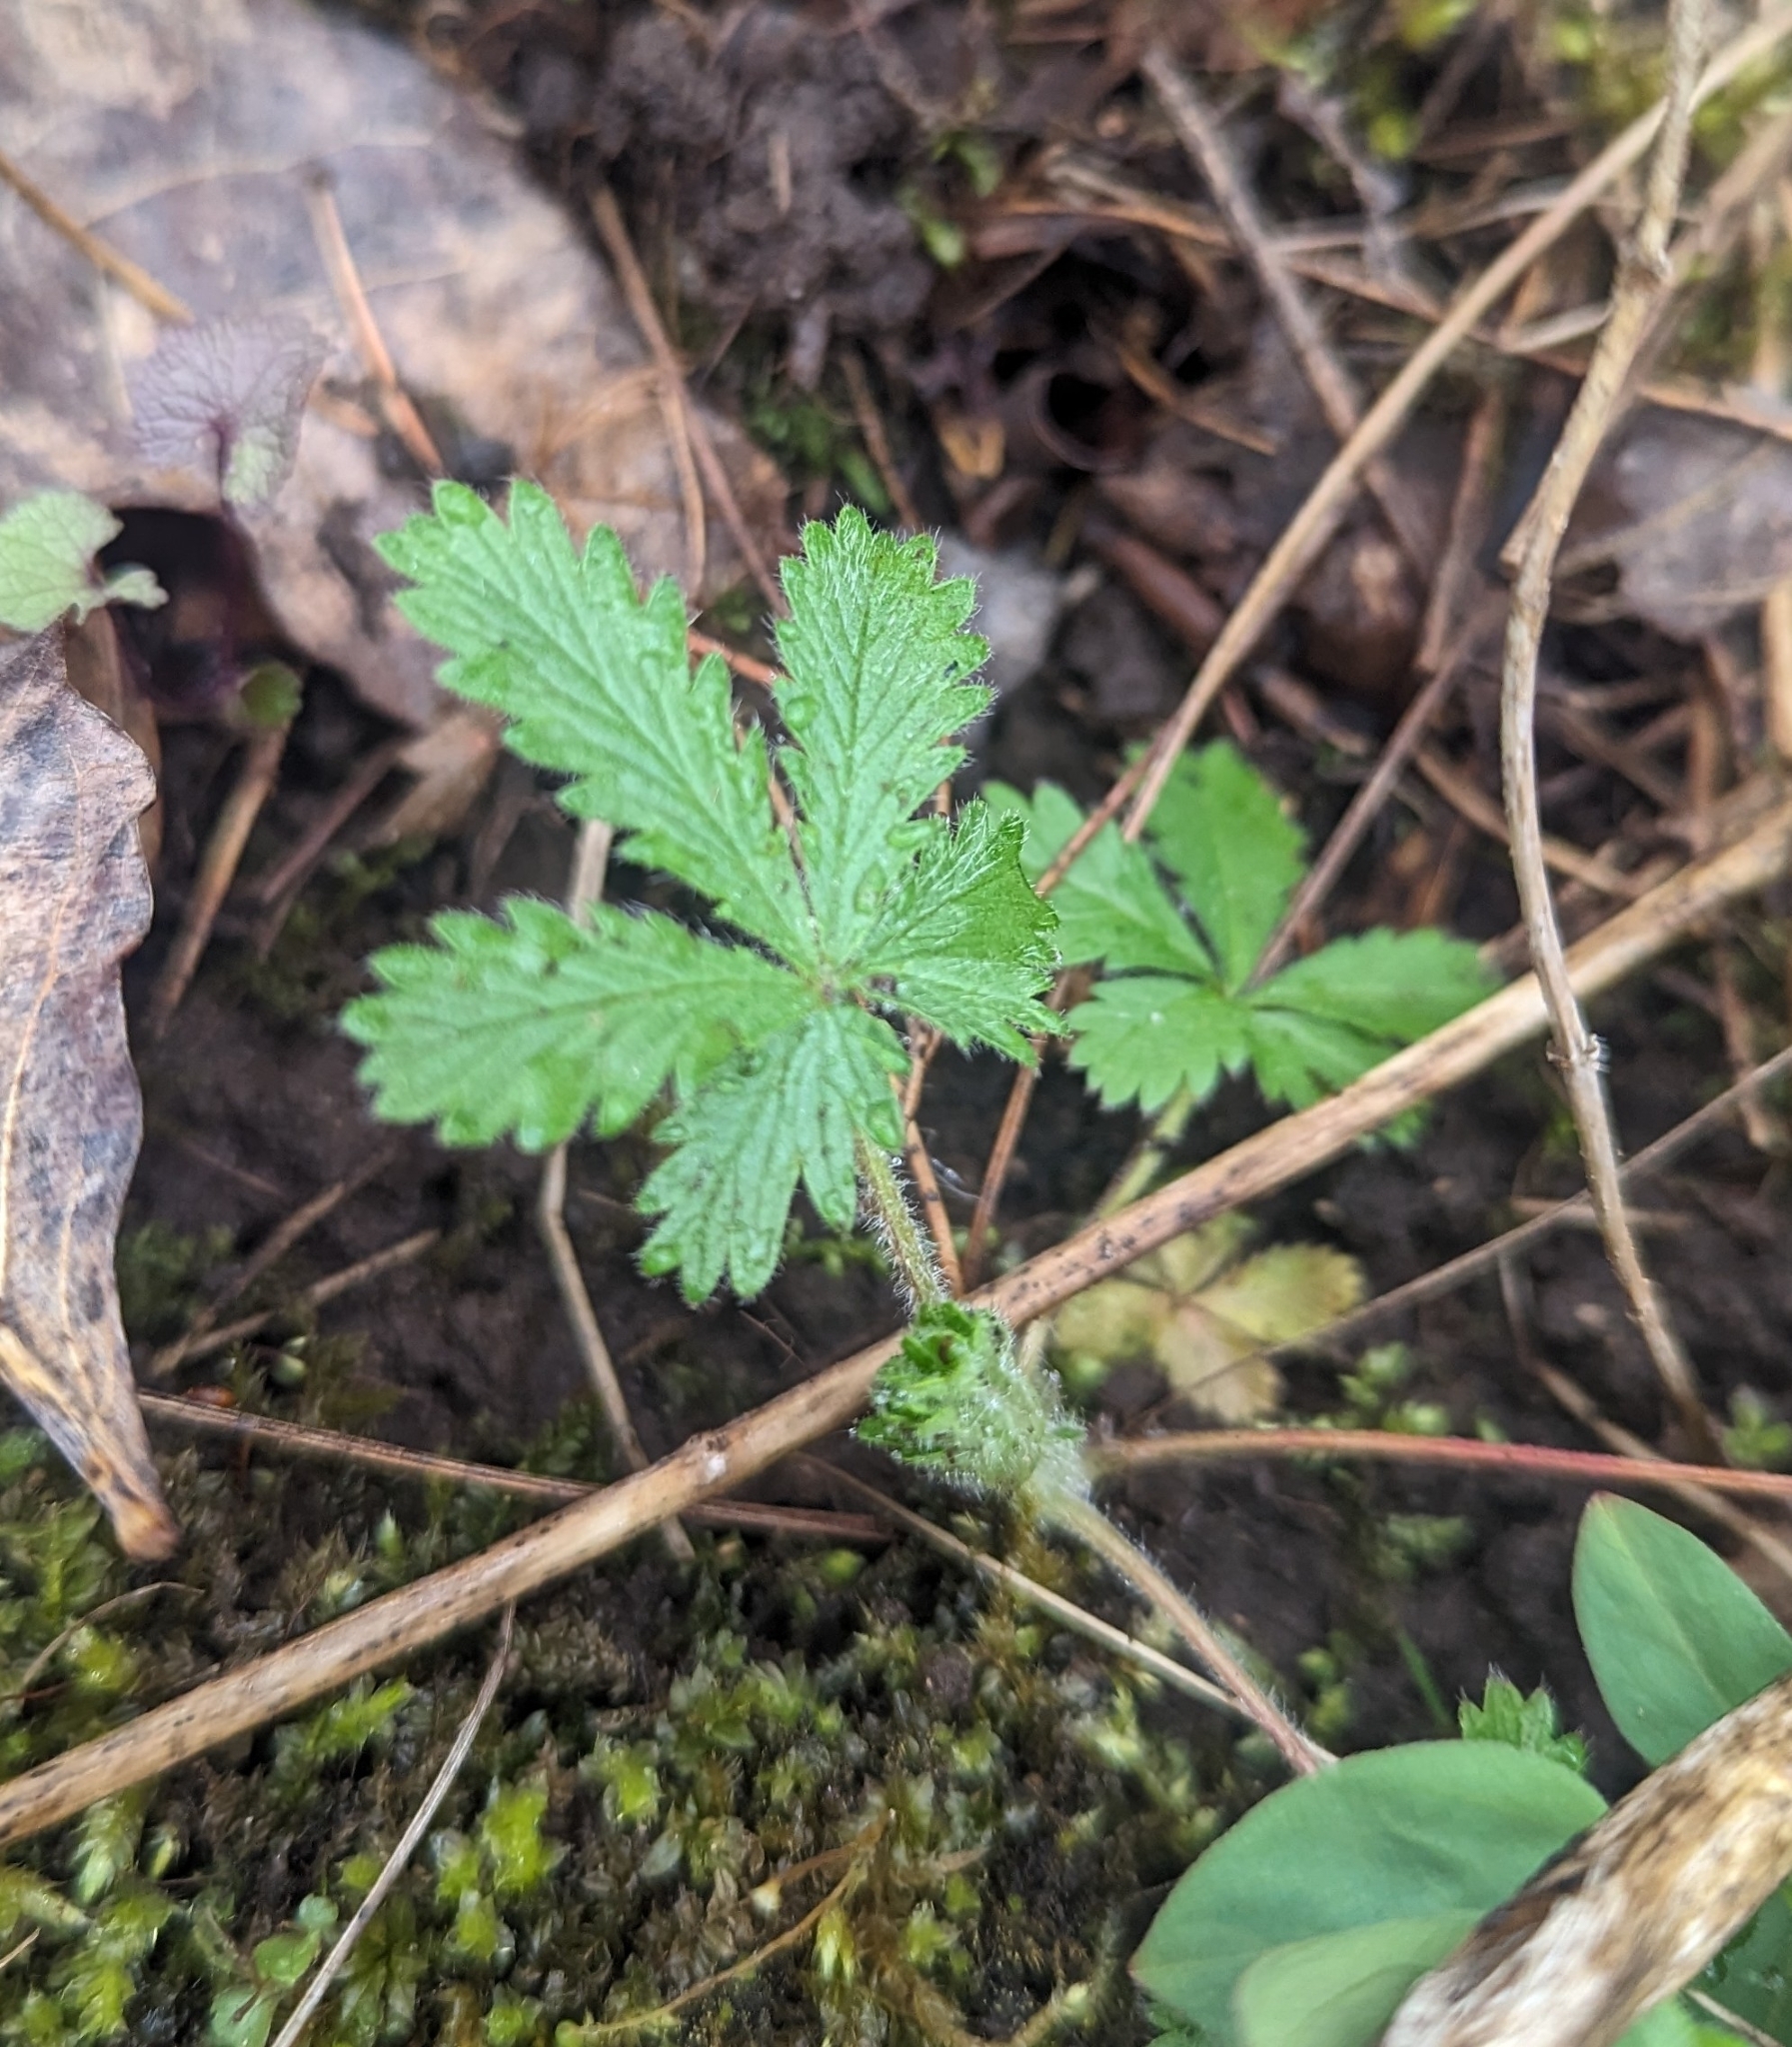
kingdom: Plantae
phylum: Tracheophyta
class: Magnoliopsida
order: Rosales
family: Rosaceae
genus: Potentilla
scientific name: Potentilla recta
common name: Sulphur cinquefoil
